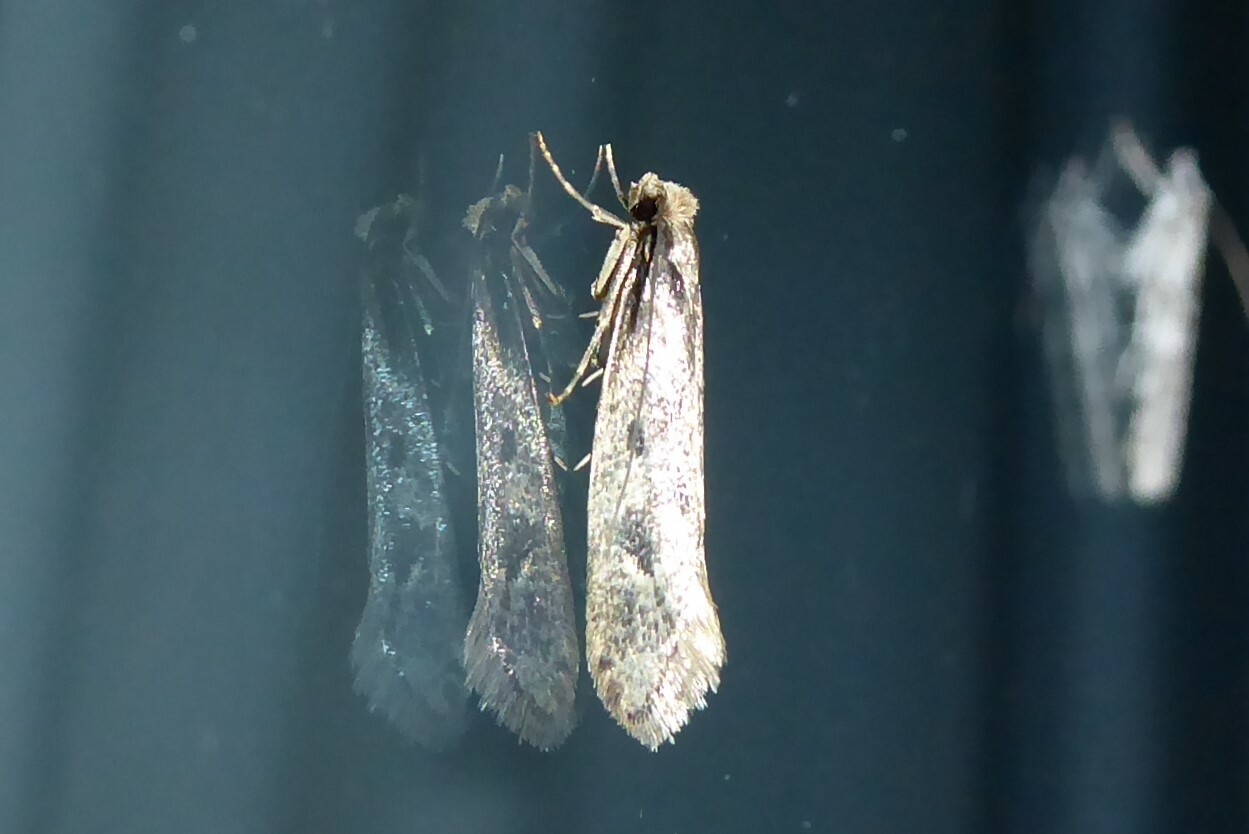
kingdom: Animalia
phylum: Arthropoda
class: Insecta
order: Lepidoptera
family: Tineidae
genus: Tinea
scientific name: Tinea pallescentella
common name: Large pale clothes moth
